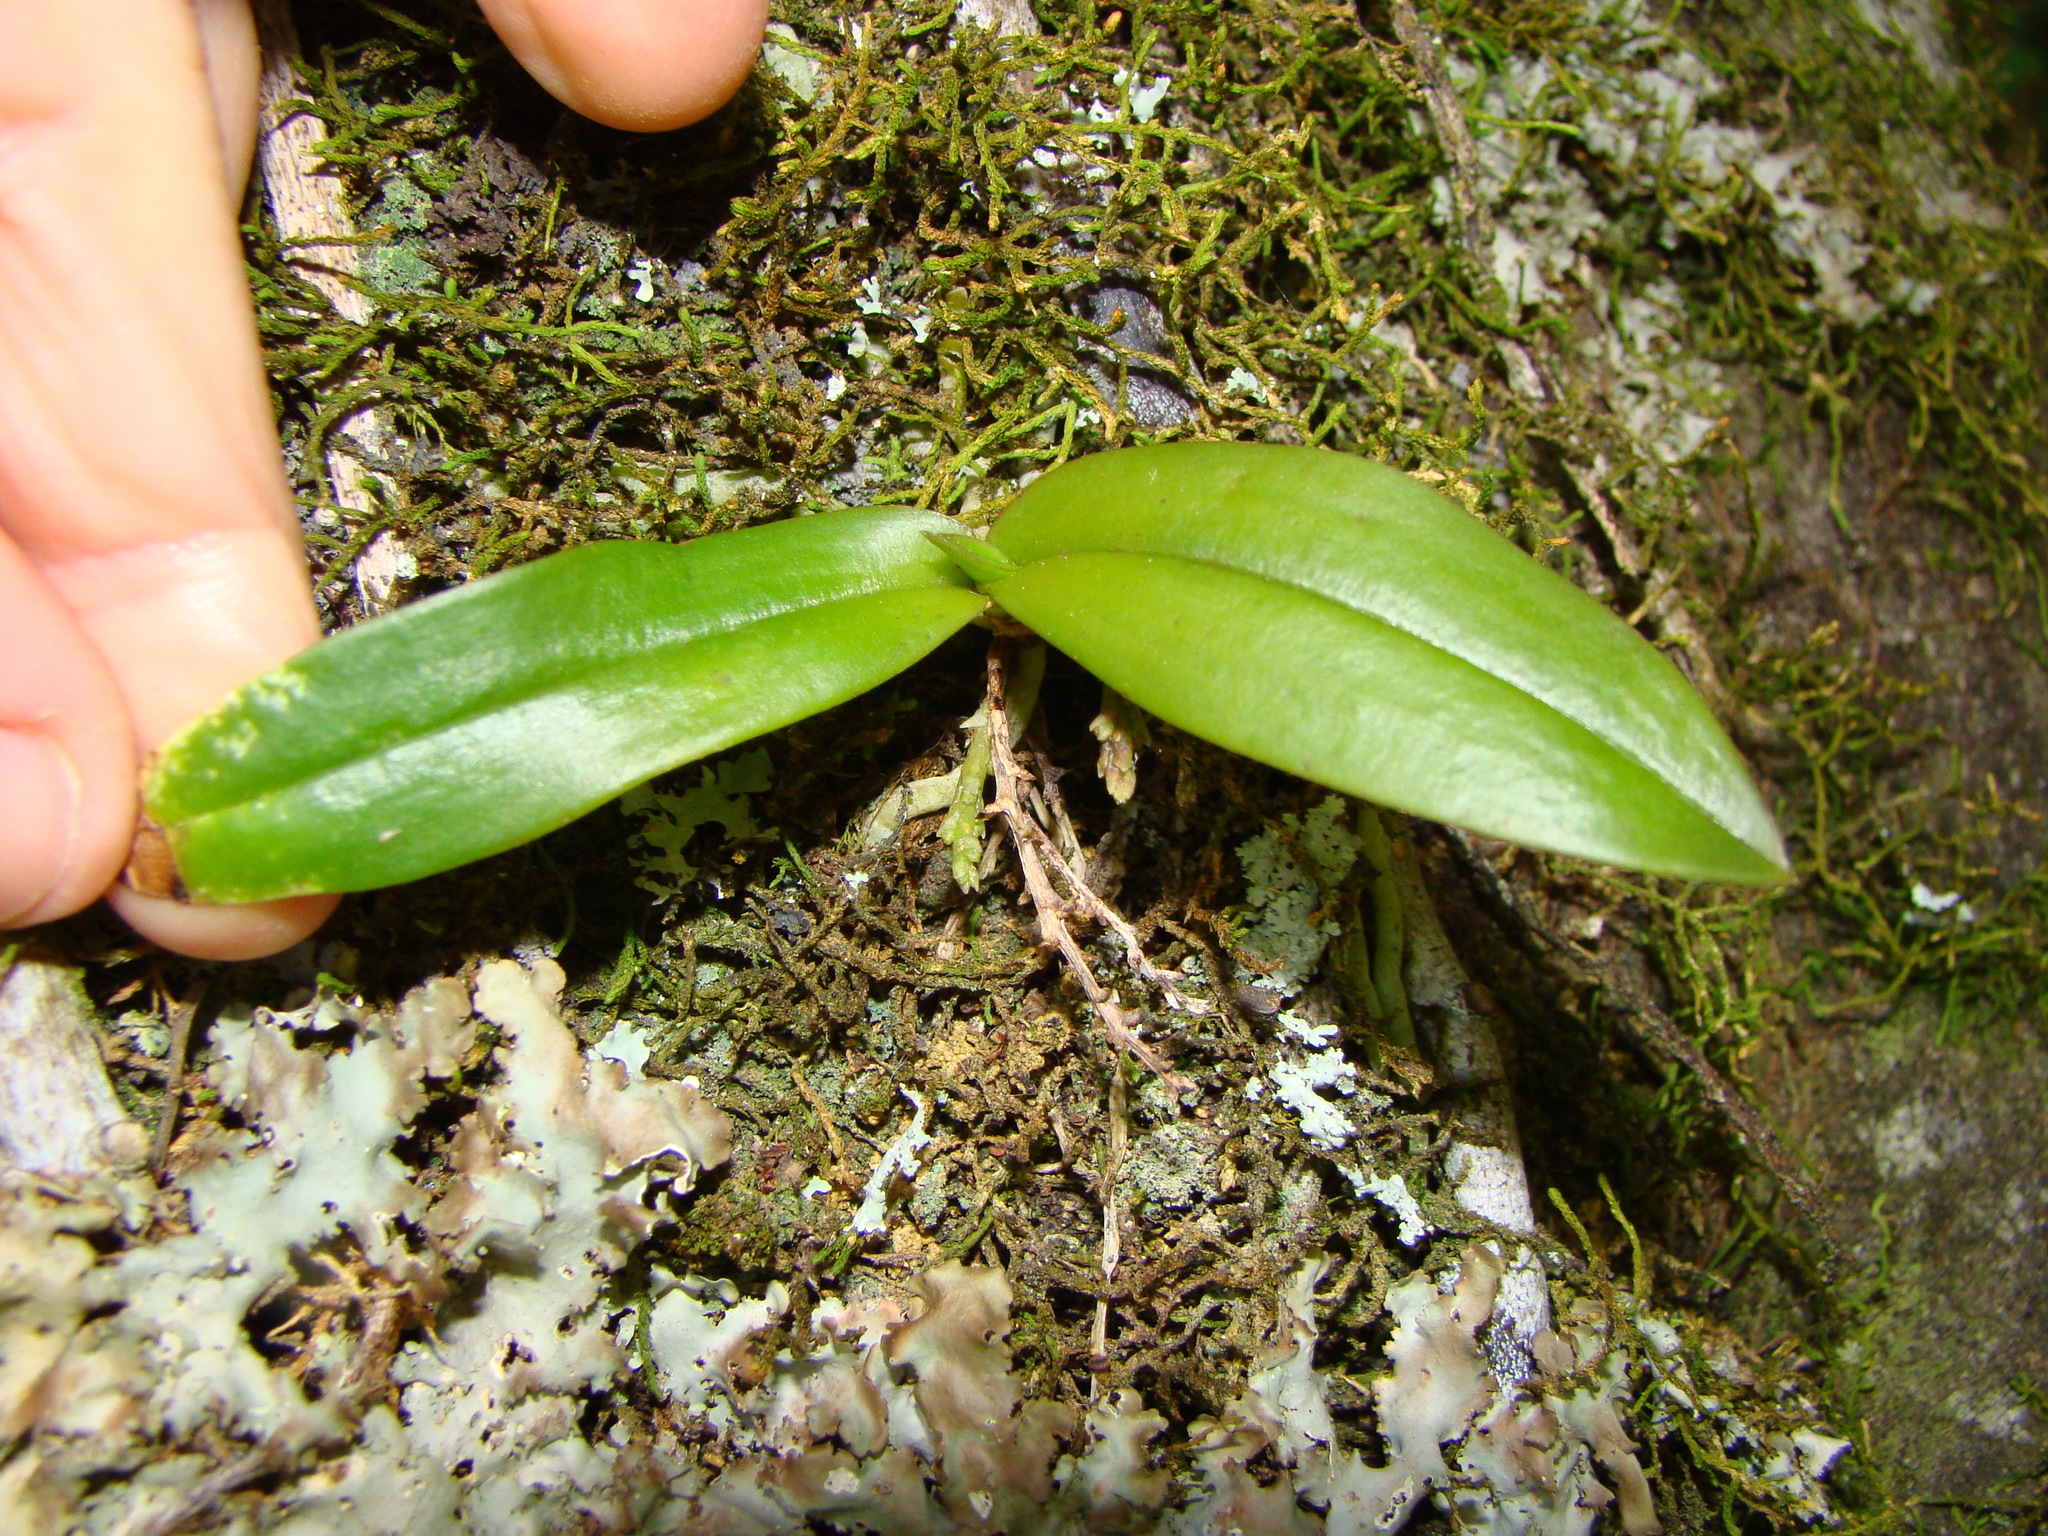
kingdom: Plantae
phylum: Tracheophyta
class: Liliopsida
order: Asparagales
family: Orchidaceae
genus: Drymoanthus
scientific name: Drymoanthus adversus
